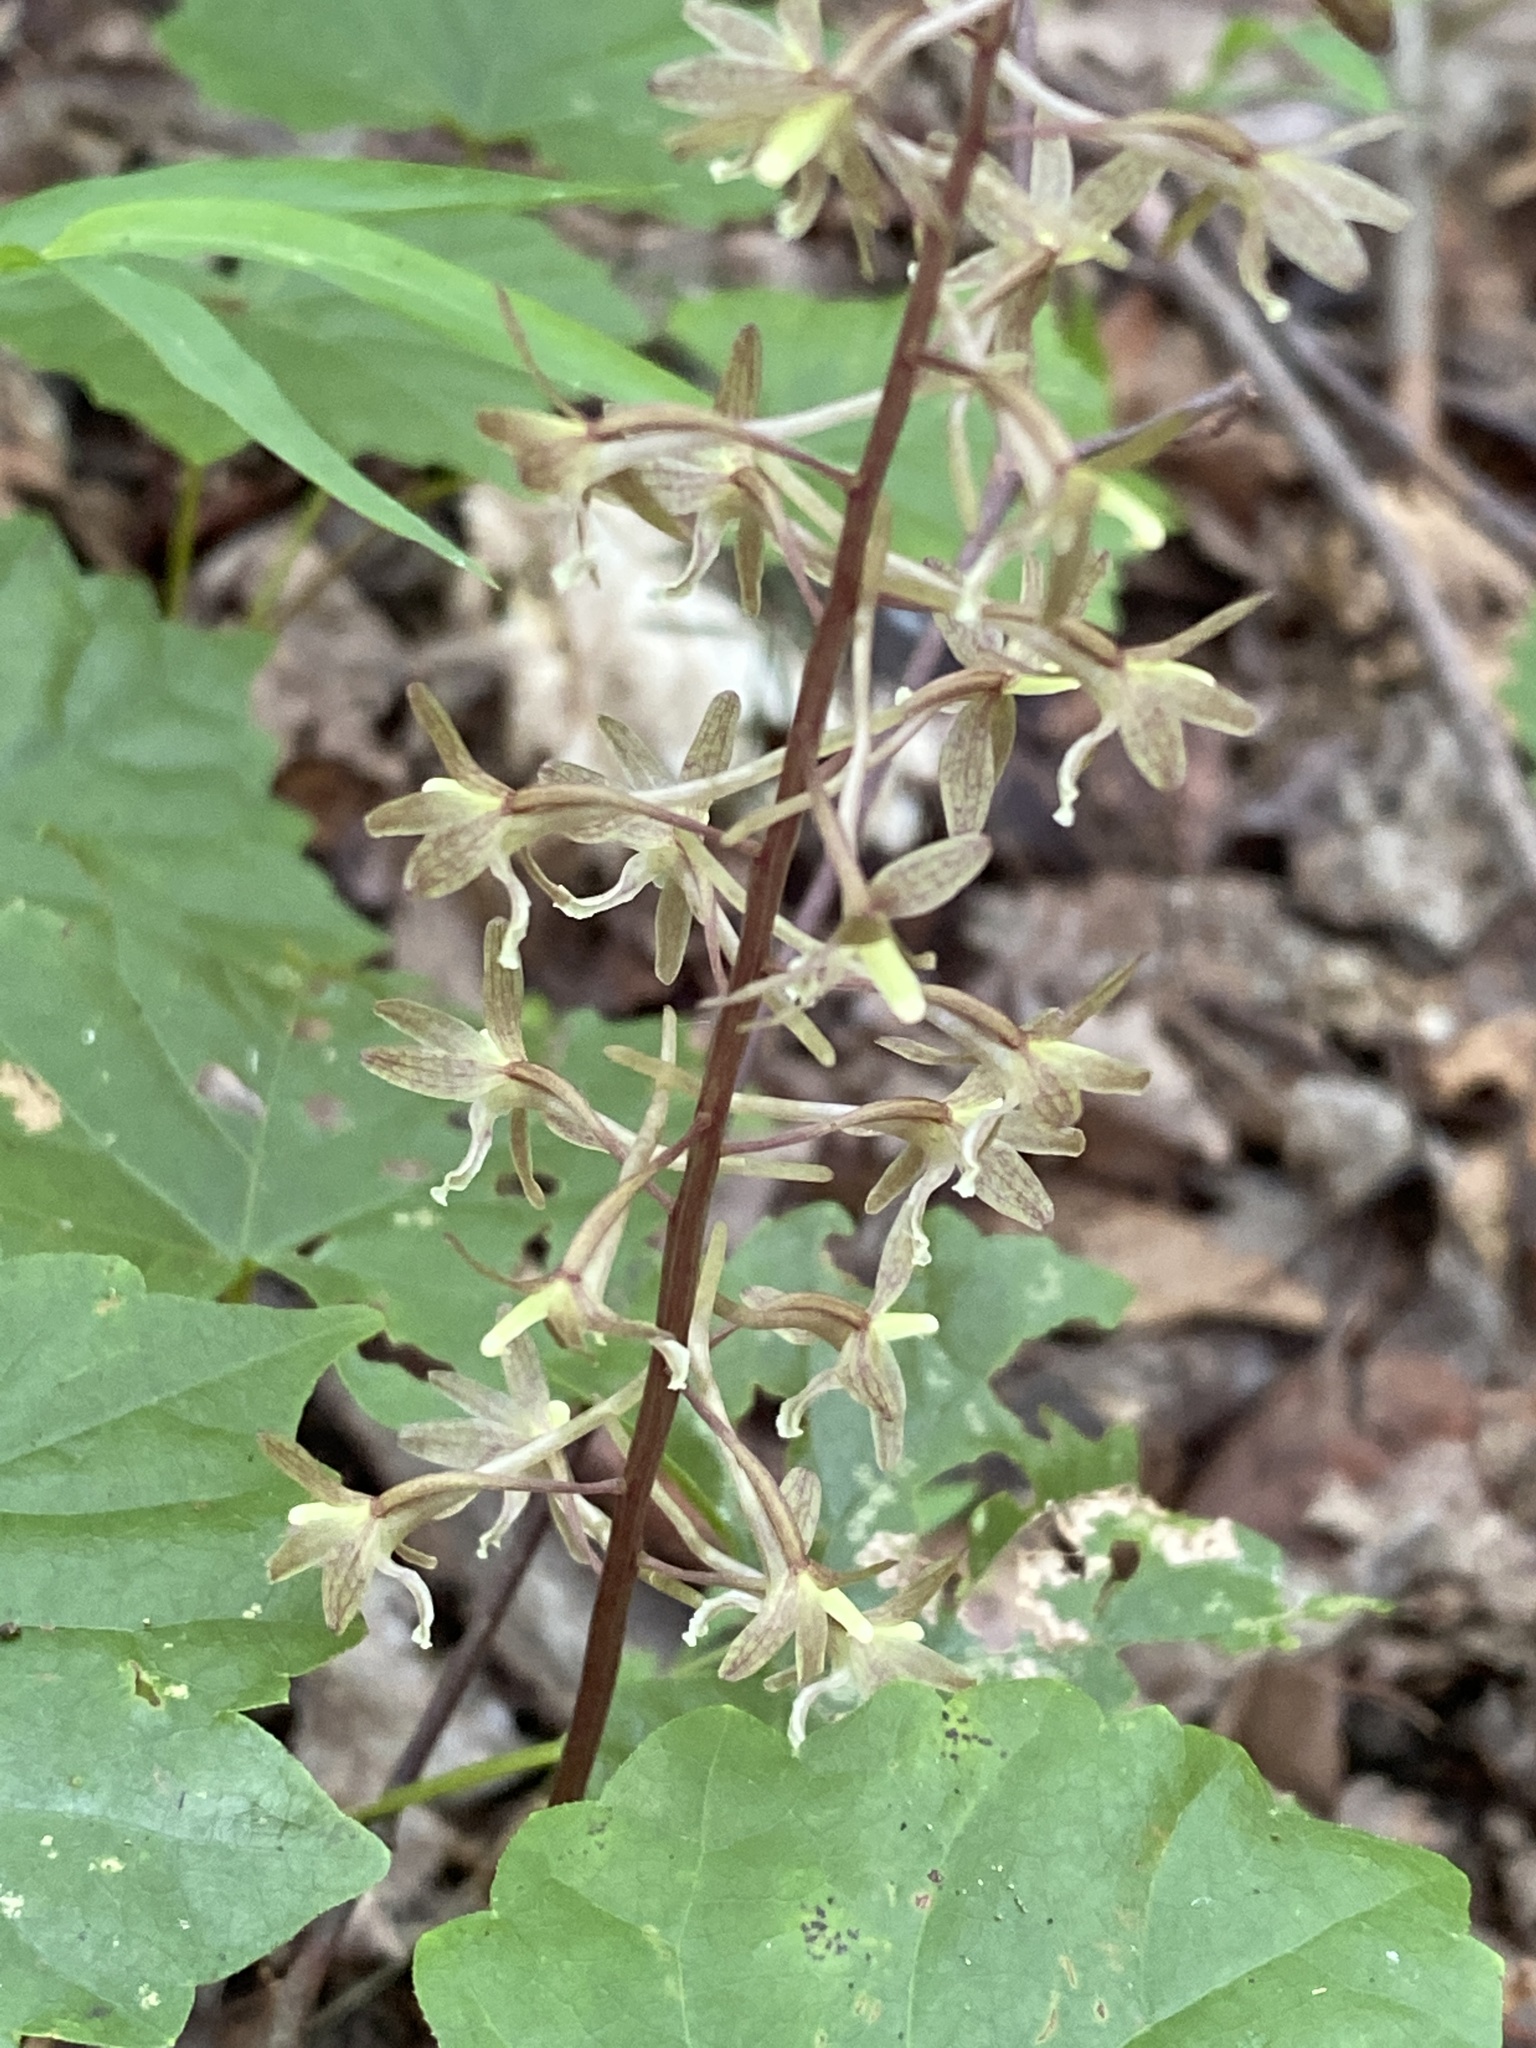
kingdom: Plantae
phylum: Tracheophyta
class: Liliopsida
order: Asparagales
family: Orchidaceae
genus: Tipularia
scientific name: Tipularia discolor
